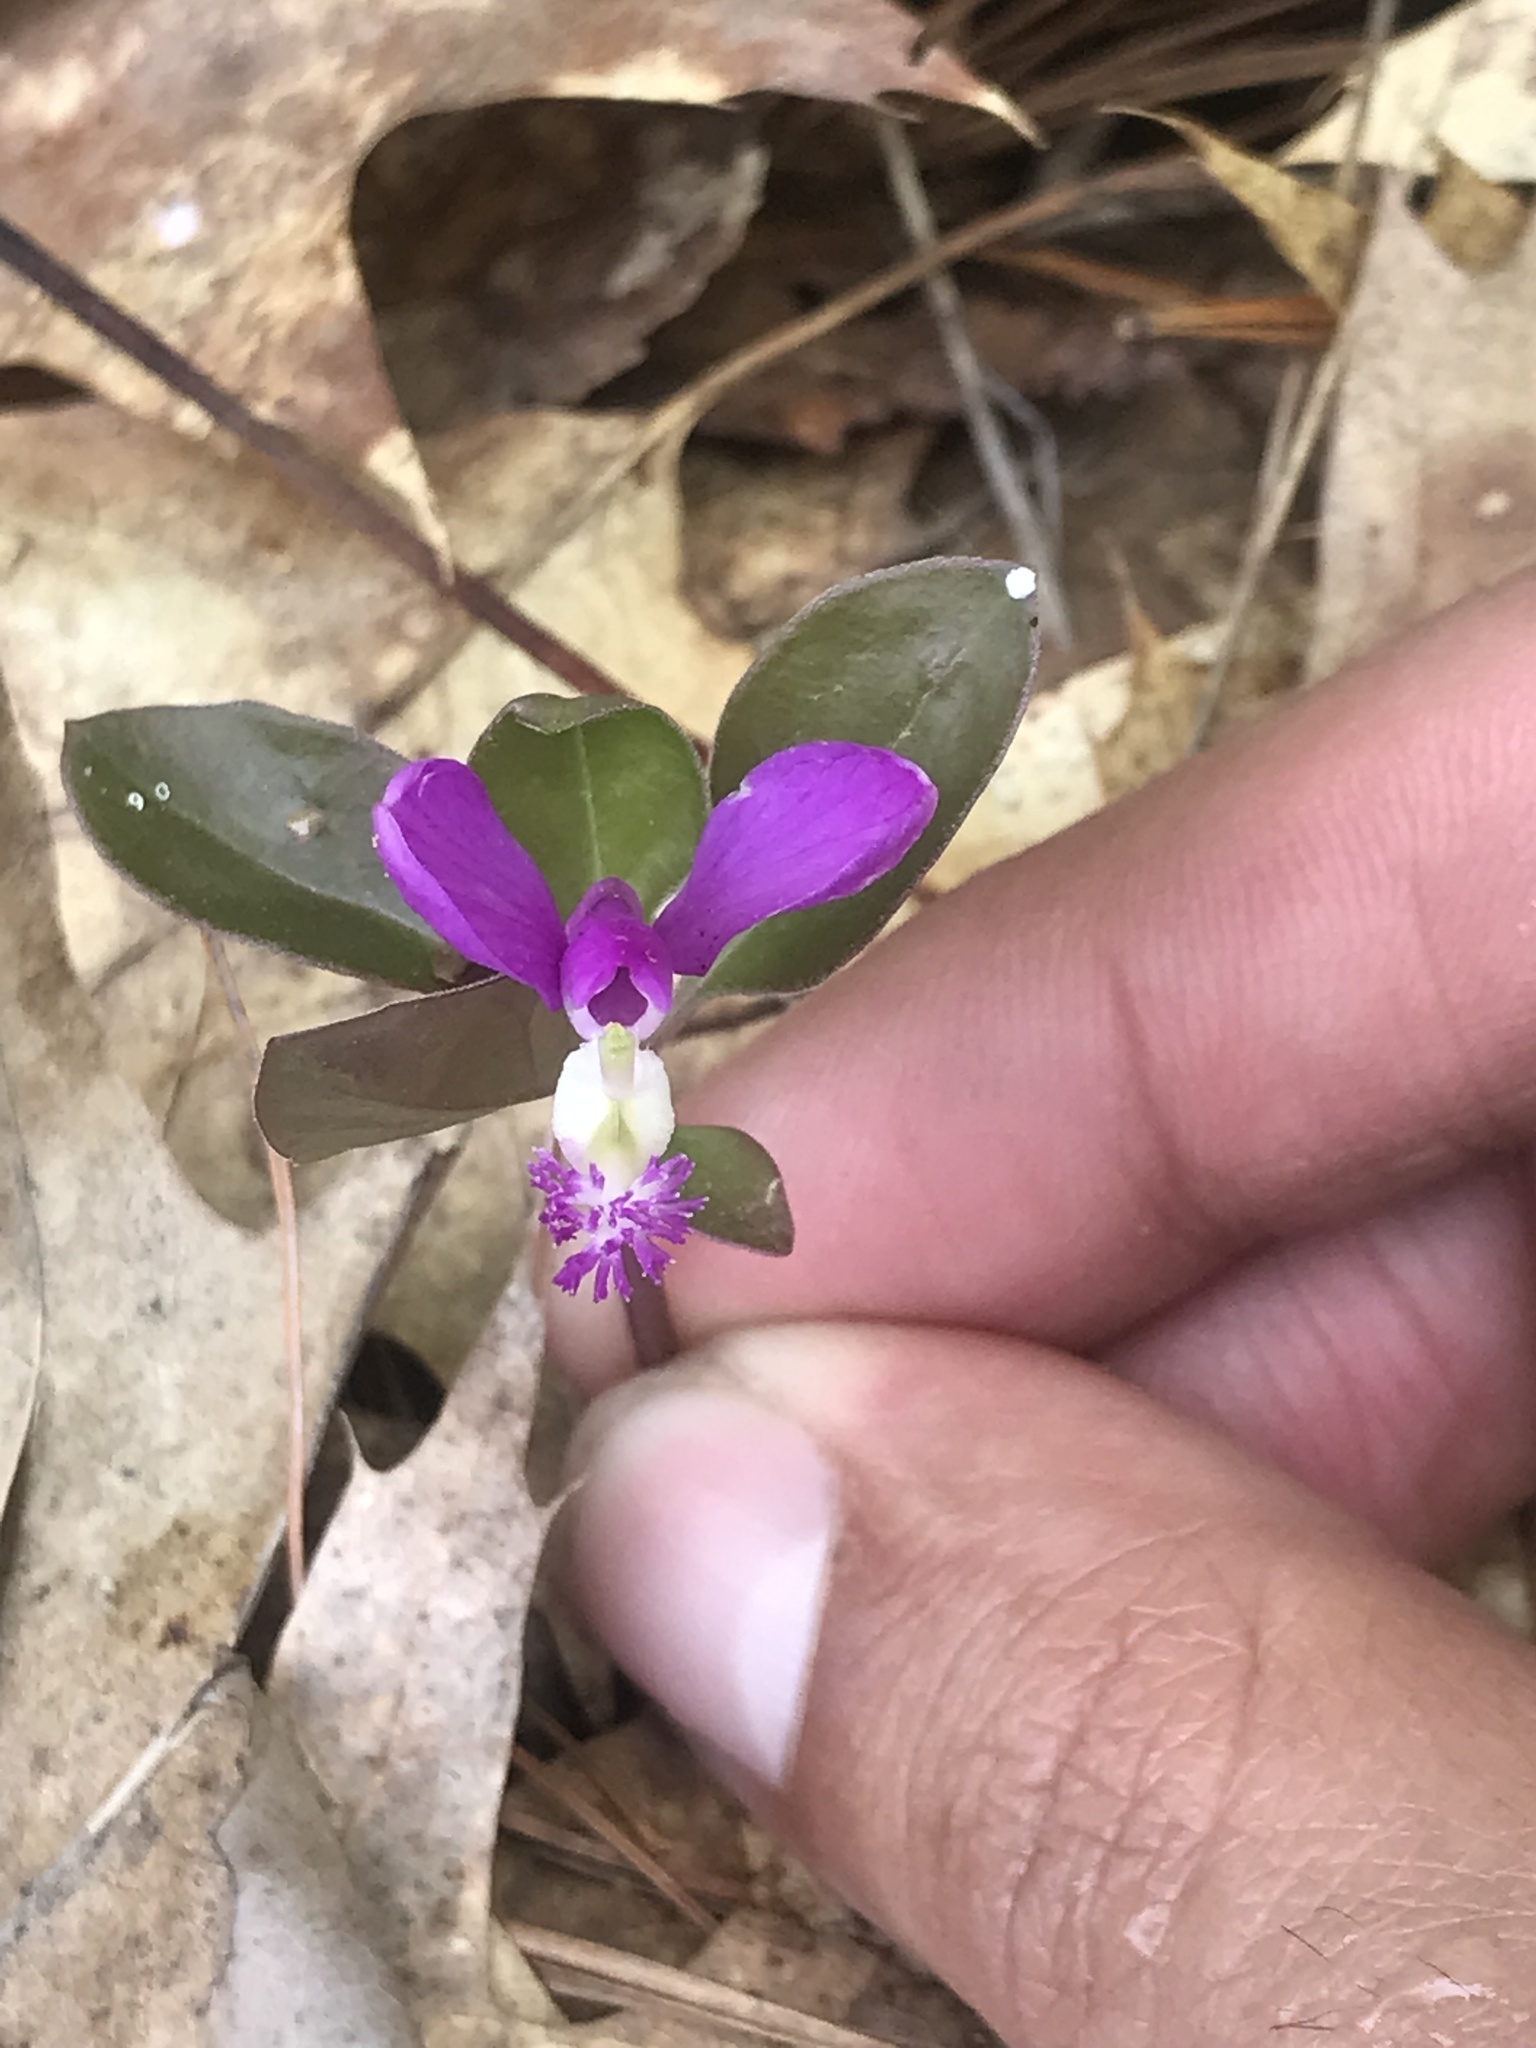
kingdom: Plantae
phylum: Tracheophyta
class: Magnoliopsida
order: Fabales
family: Polygalaceae
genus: Polygaloides
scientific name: Polygaloides paucifolia
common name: Bird-on-the-wing
